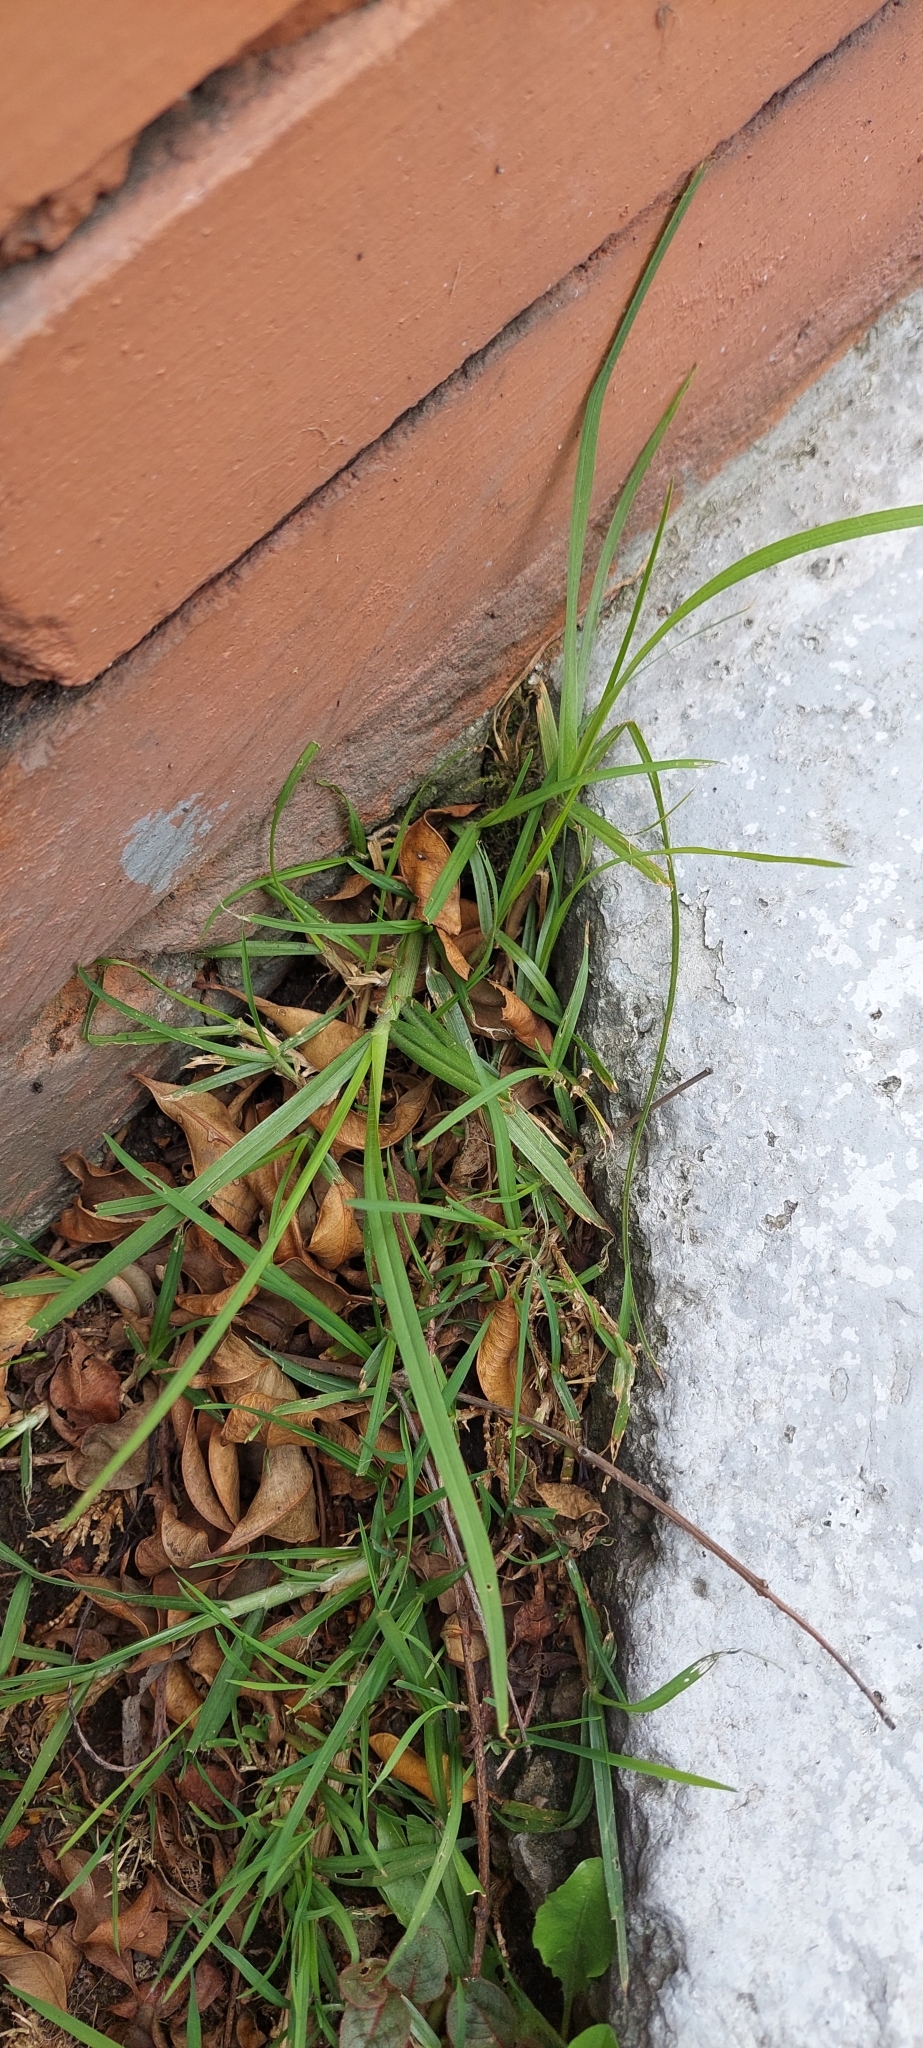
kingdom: Plantae
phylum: Tracheophyta
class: Liliopsida
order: Poales
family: Poaceae
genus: Cenchrus
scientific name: Cenchrus clandestinus
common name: Kikuyugrass
